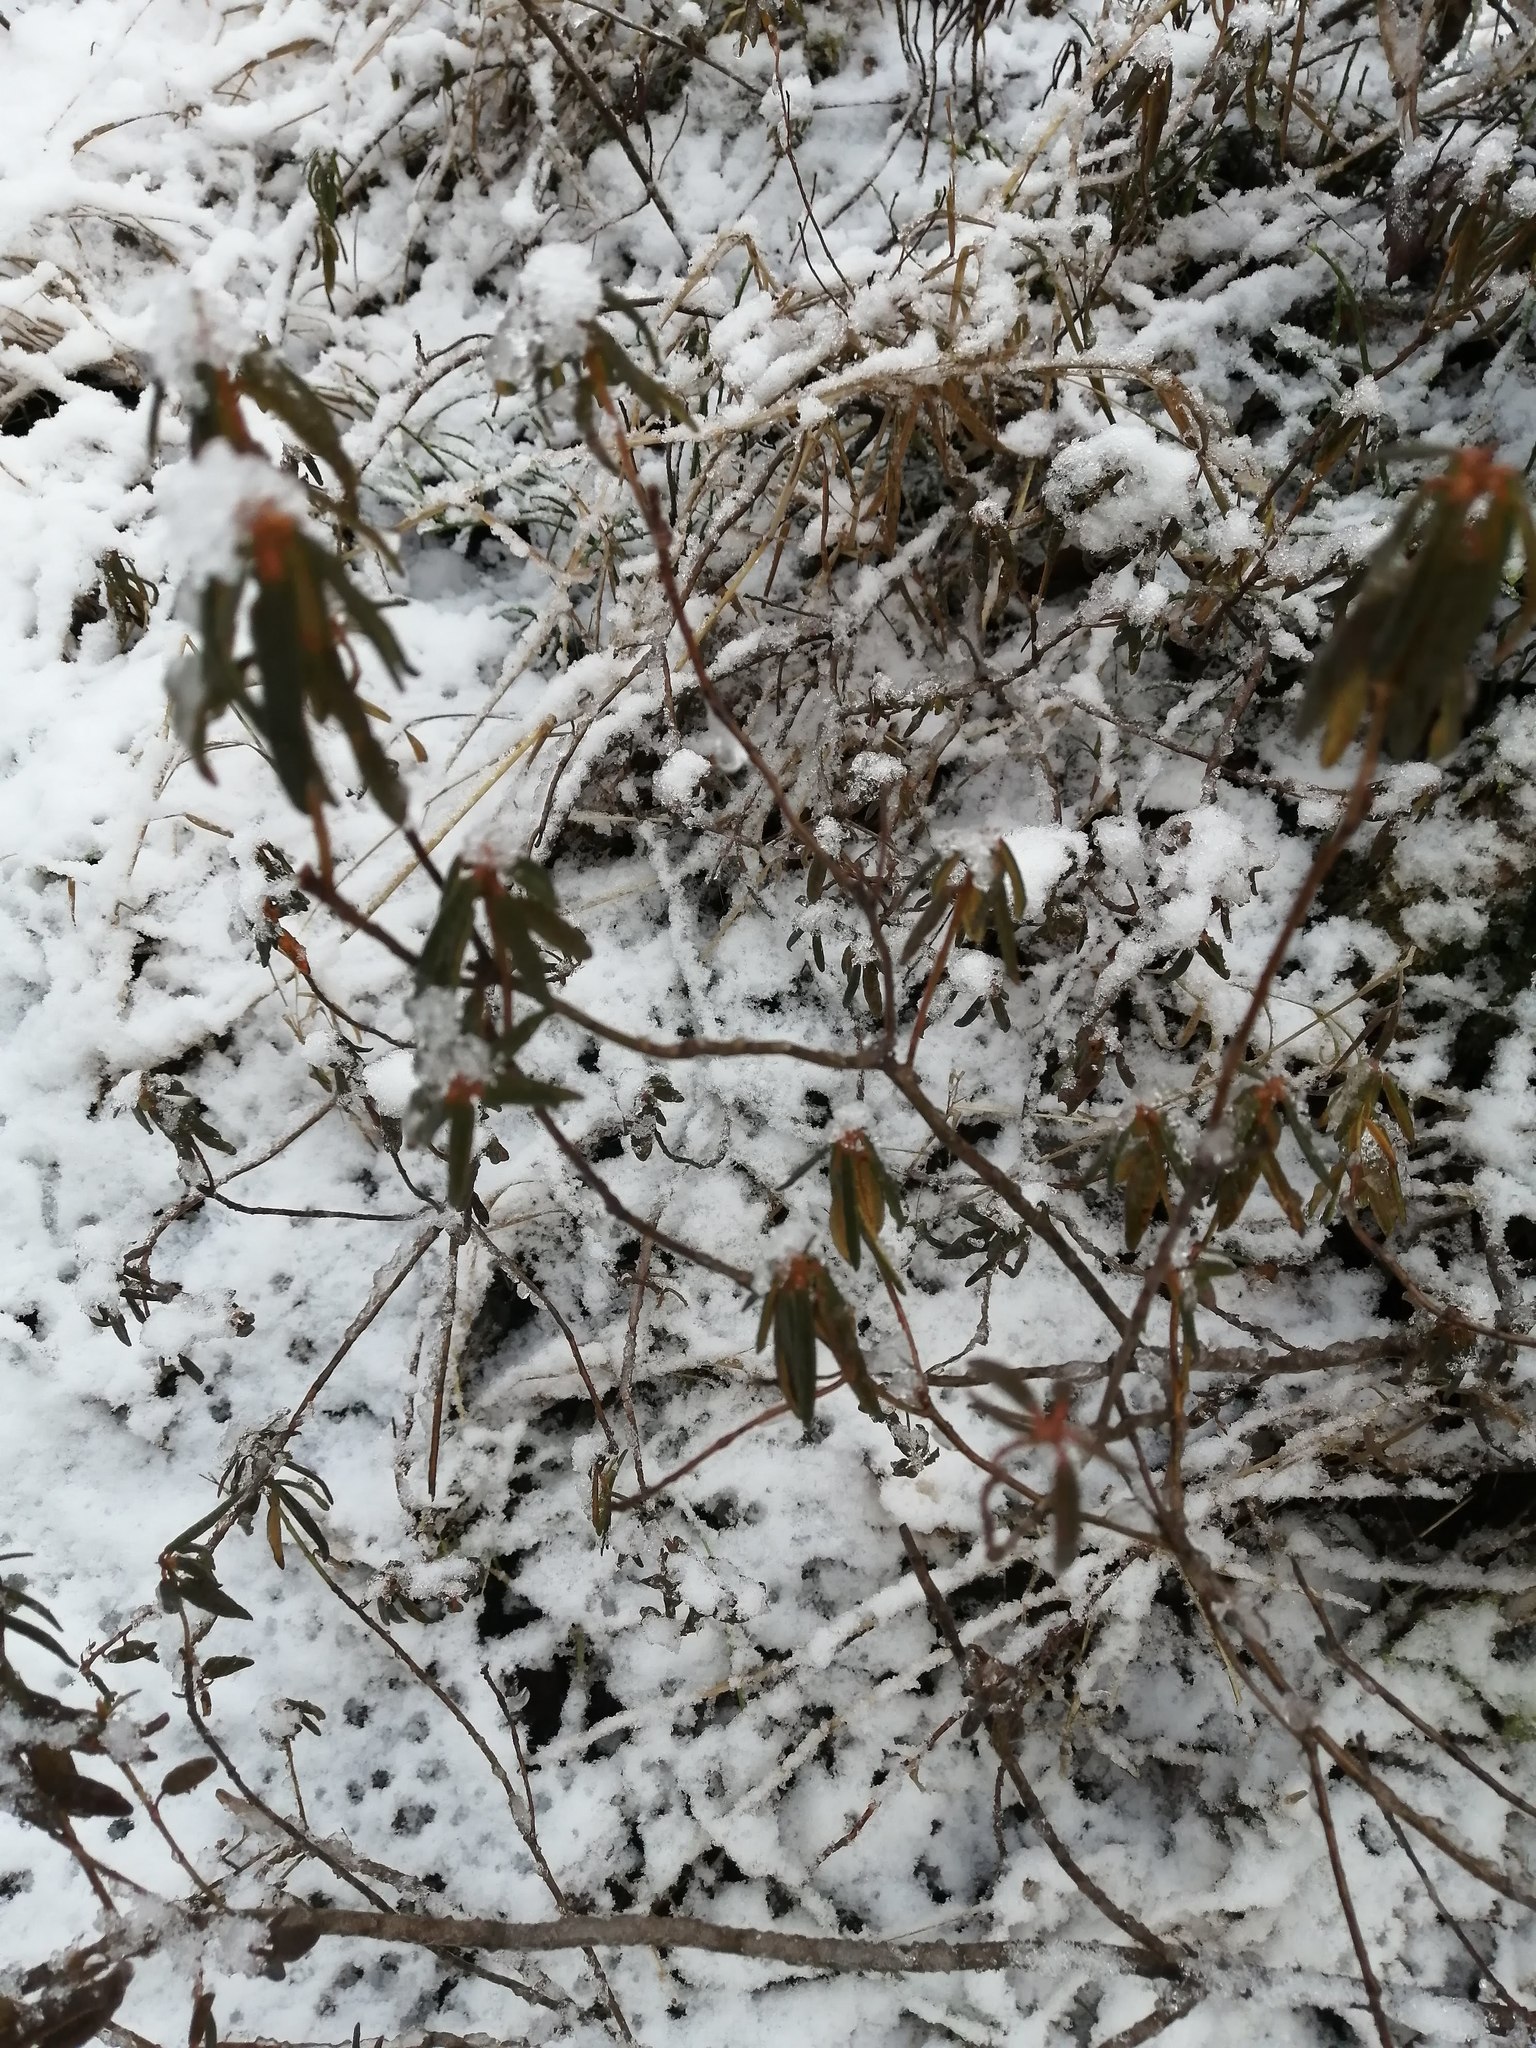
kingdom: Plantae
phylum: Tracheophyta
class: Magnoliopsida
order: Ericales
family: Ericaceae
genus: Rhododendron
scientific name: Rhododendron tomentosum
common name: Marsh labrador tea
